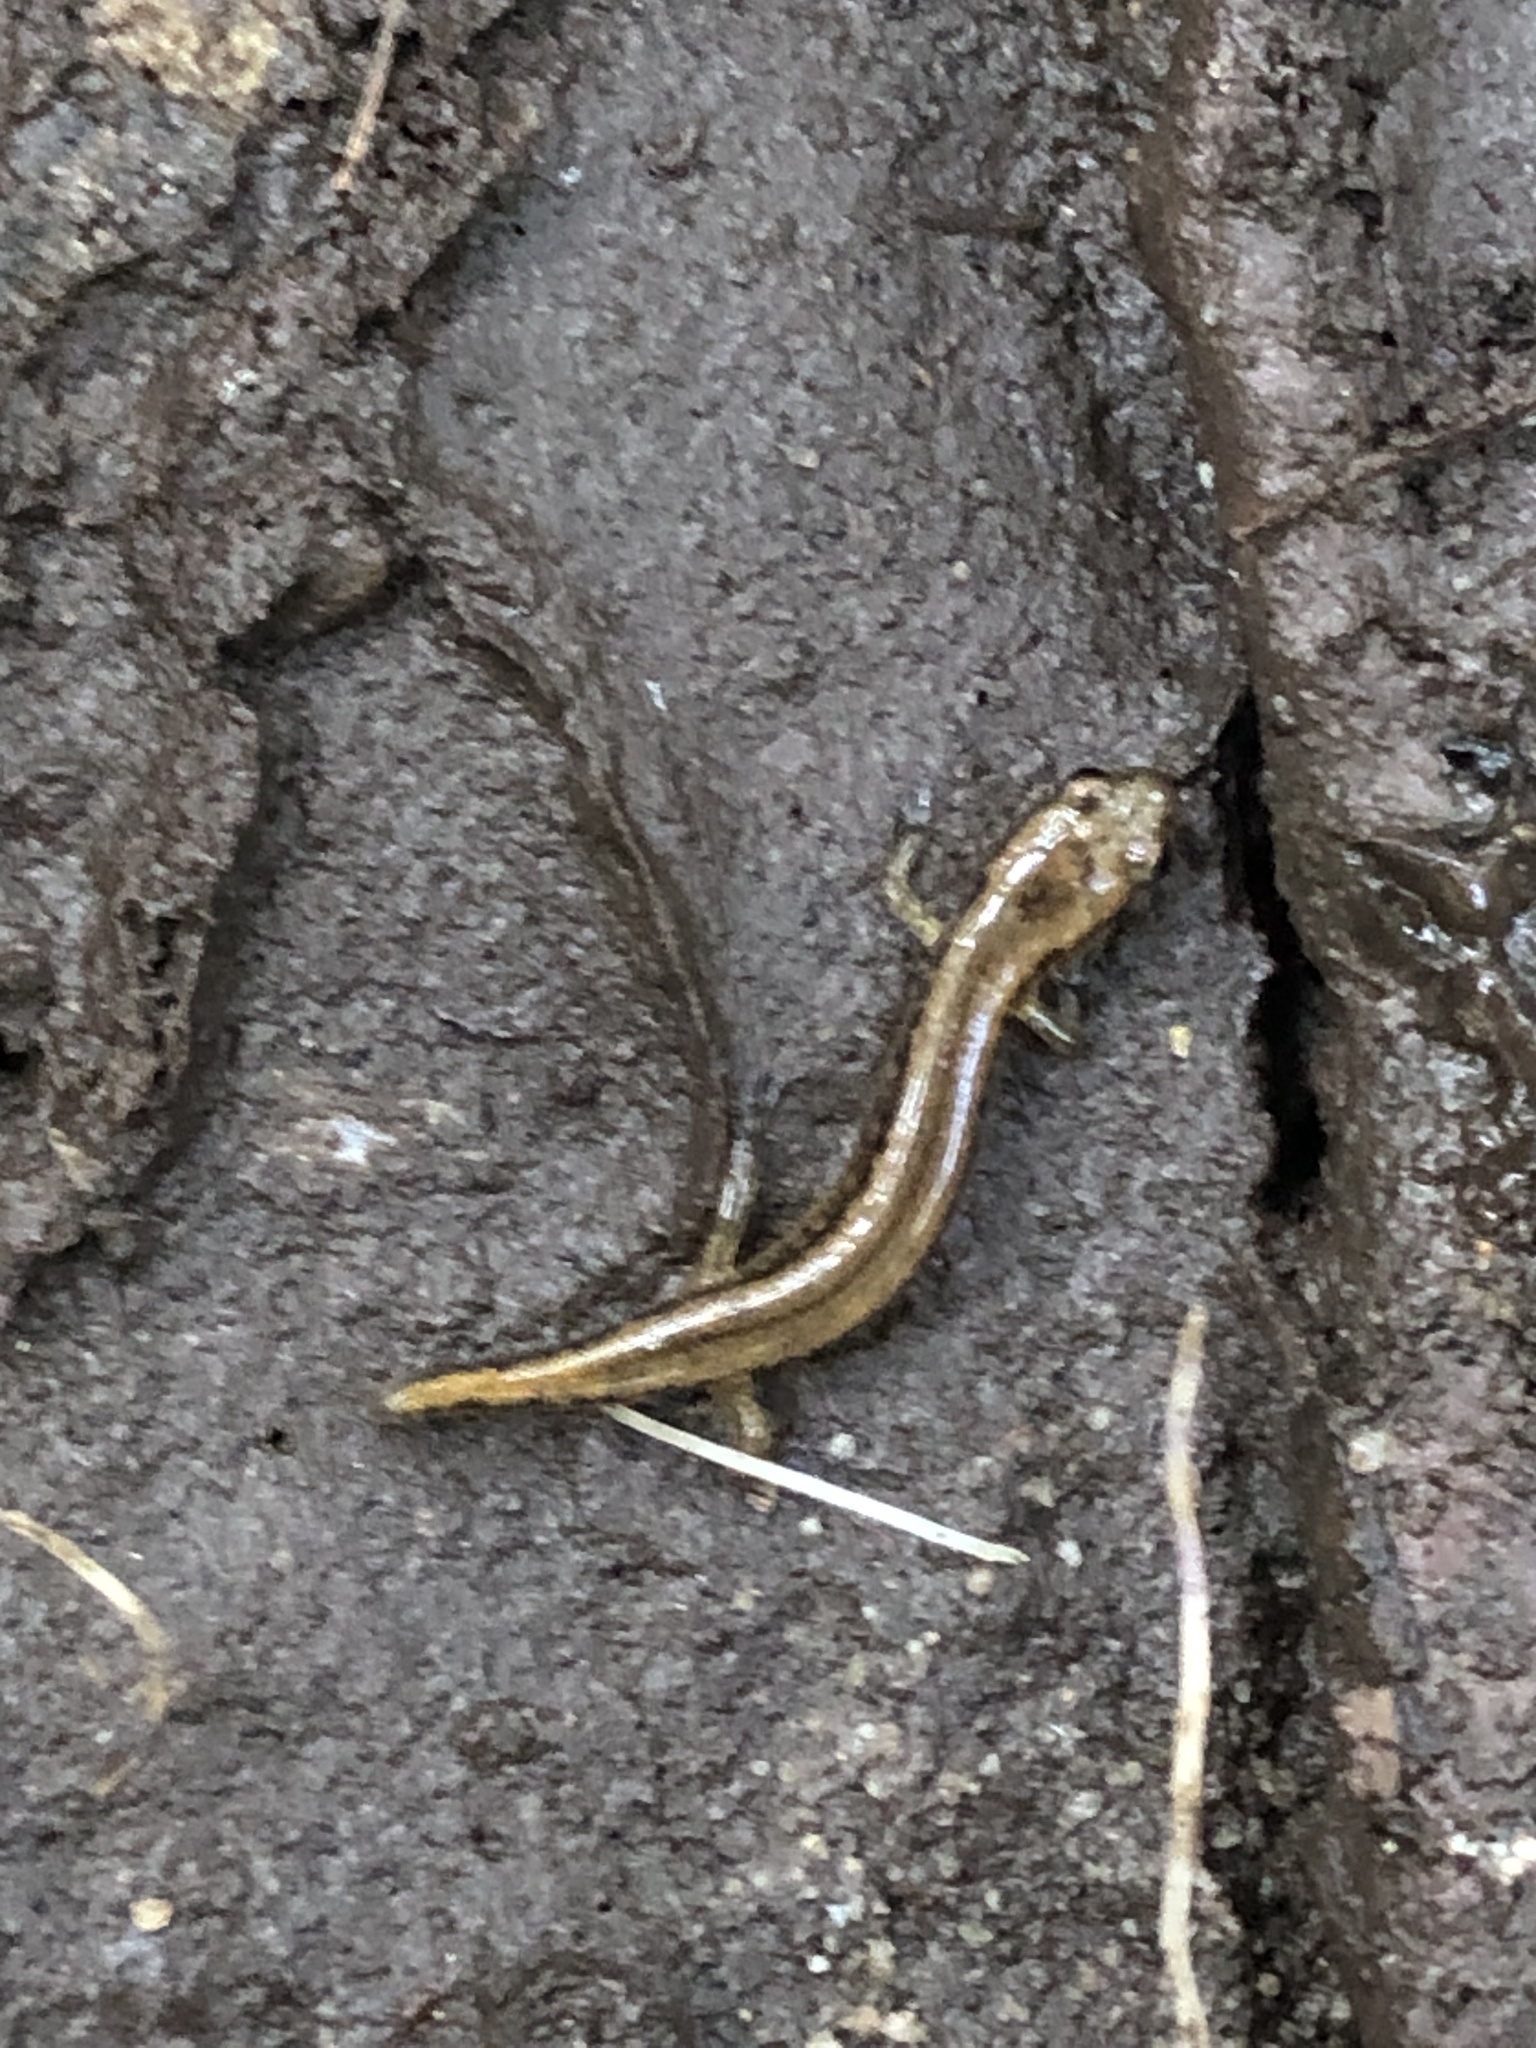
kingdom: Animalia
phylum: Chordata
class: Amphibia
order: Caudata
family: Plethodontidae
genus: Eurycea
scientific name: Eurycea bislineata
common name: Northern two-lined salamander
